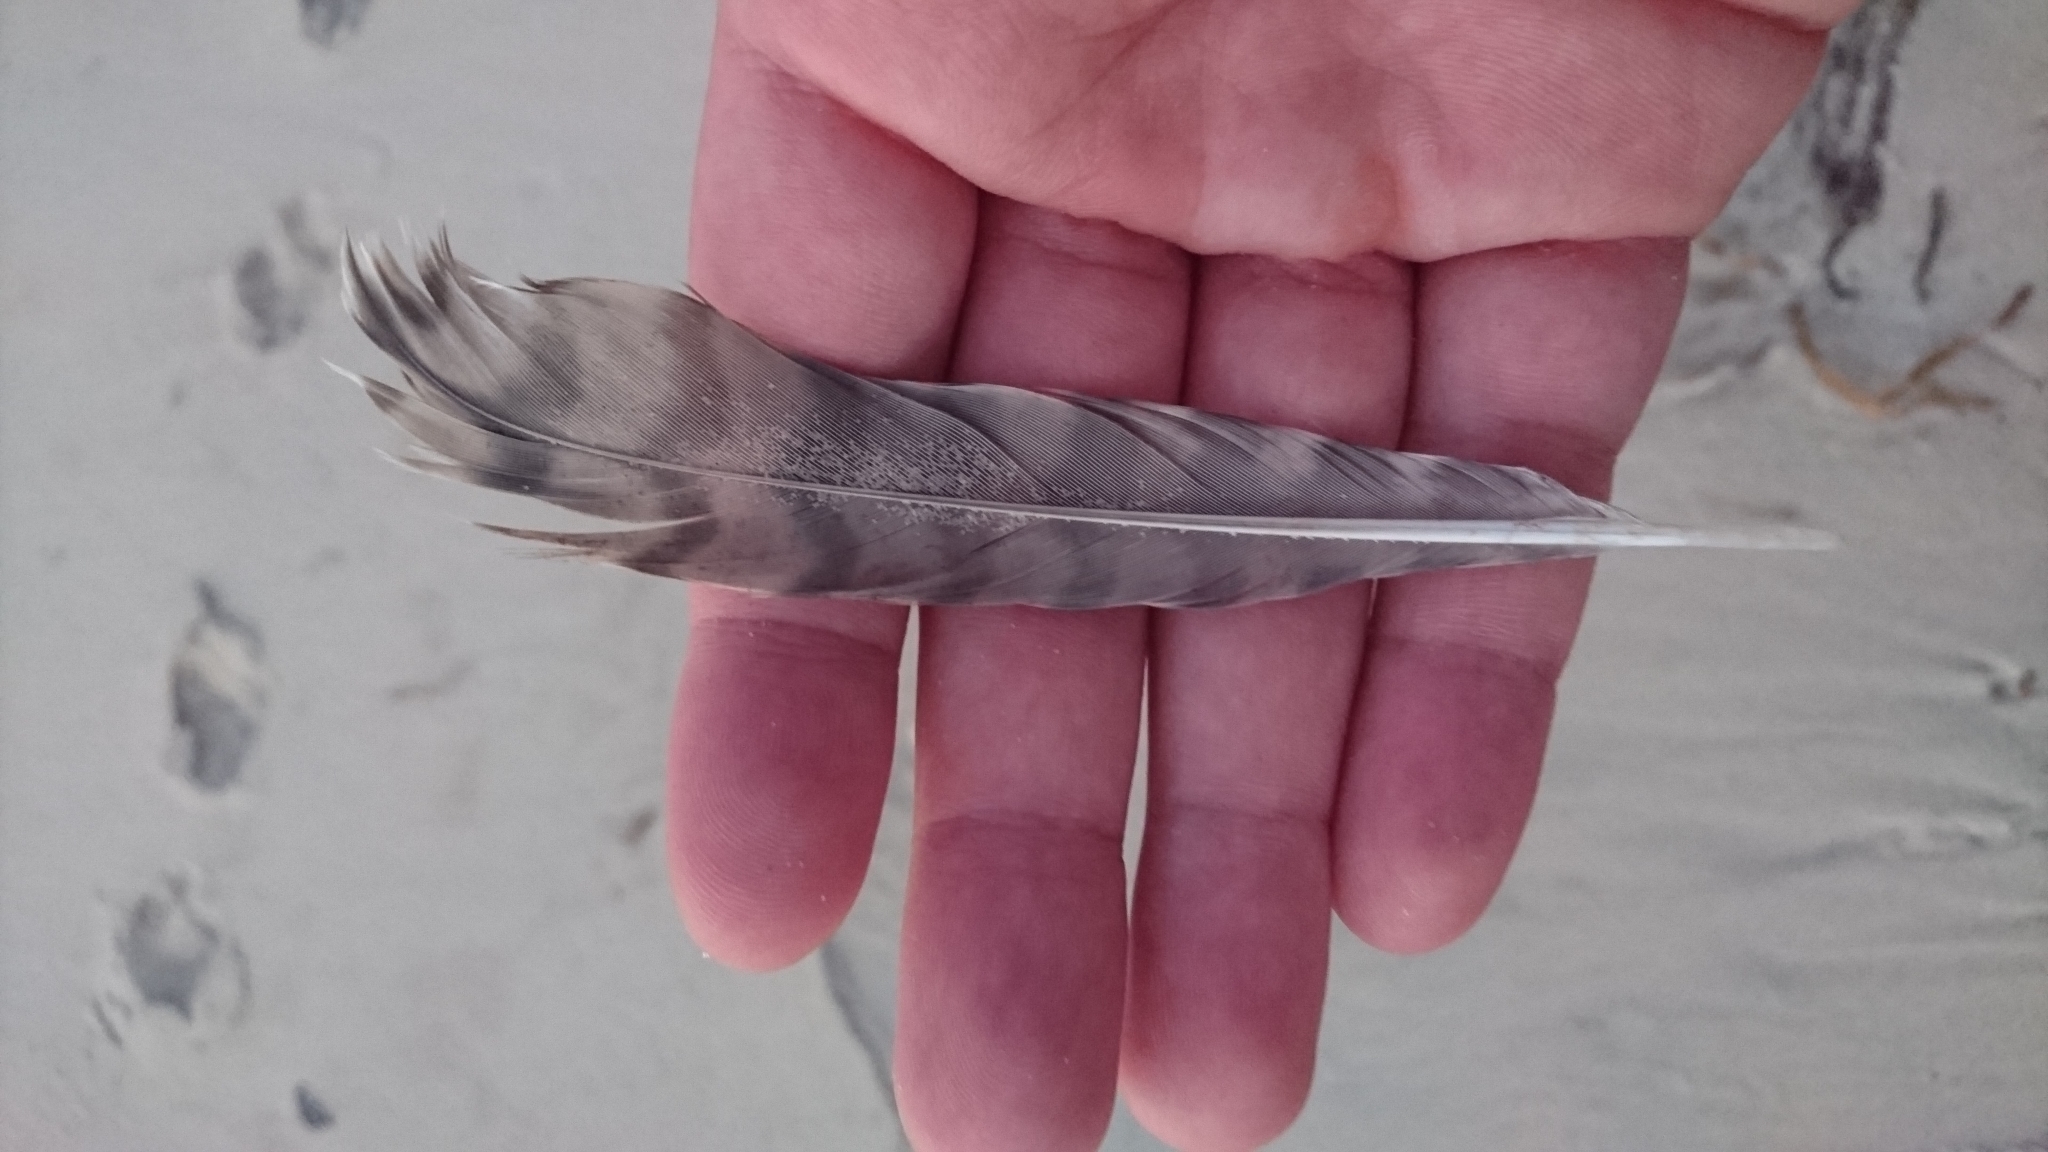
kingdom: Animalia
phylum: Chordata
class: Aves
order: Charadriiformes
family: Scolopacidae
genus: Numenius
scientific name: Numenius phaeopus
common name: Whimbrel
